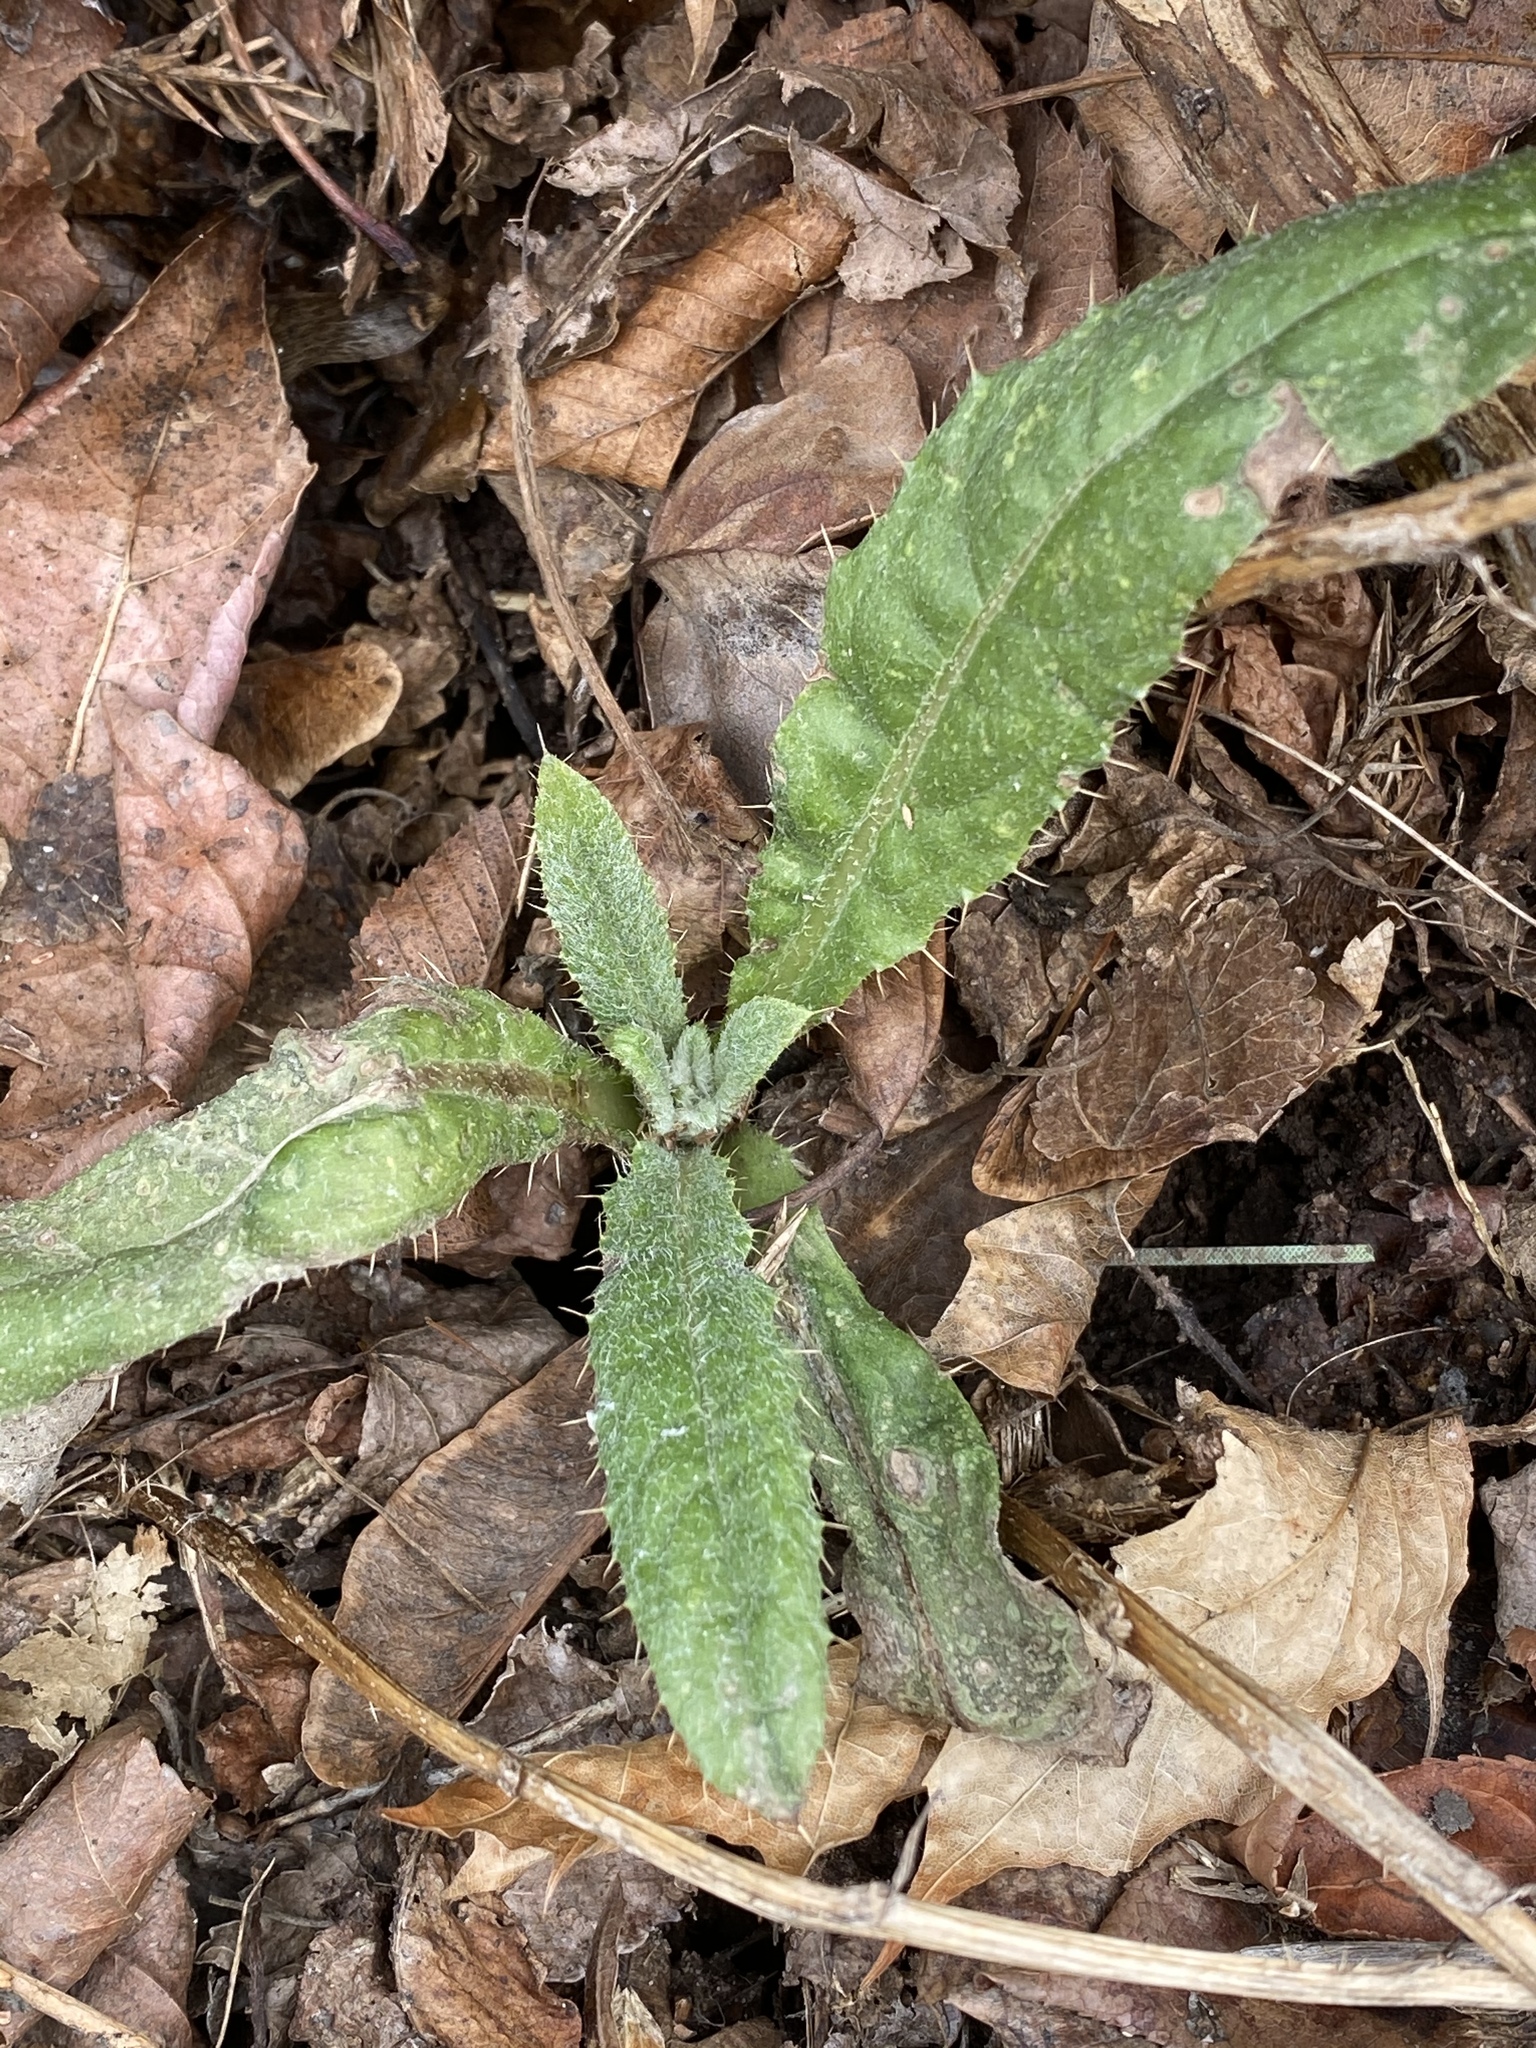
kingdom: Plantae
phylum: Tracheophyta
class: Magnoliopsida
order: Asterales
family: Asteraceae
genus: Cirsium
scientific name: Cirsium arvense
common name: Creeping thistle
